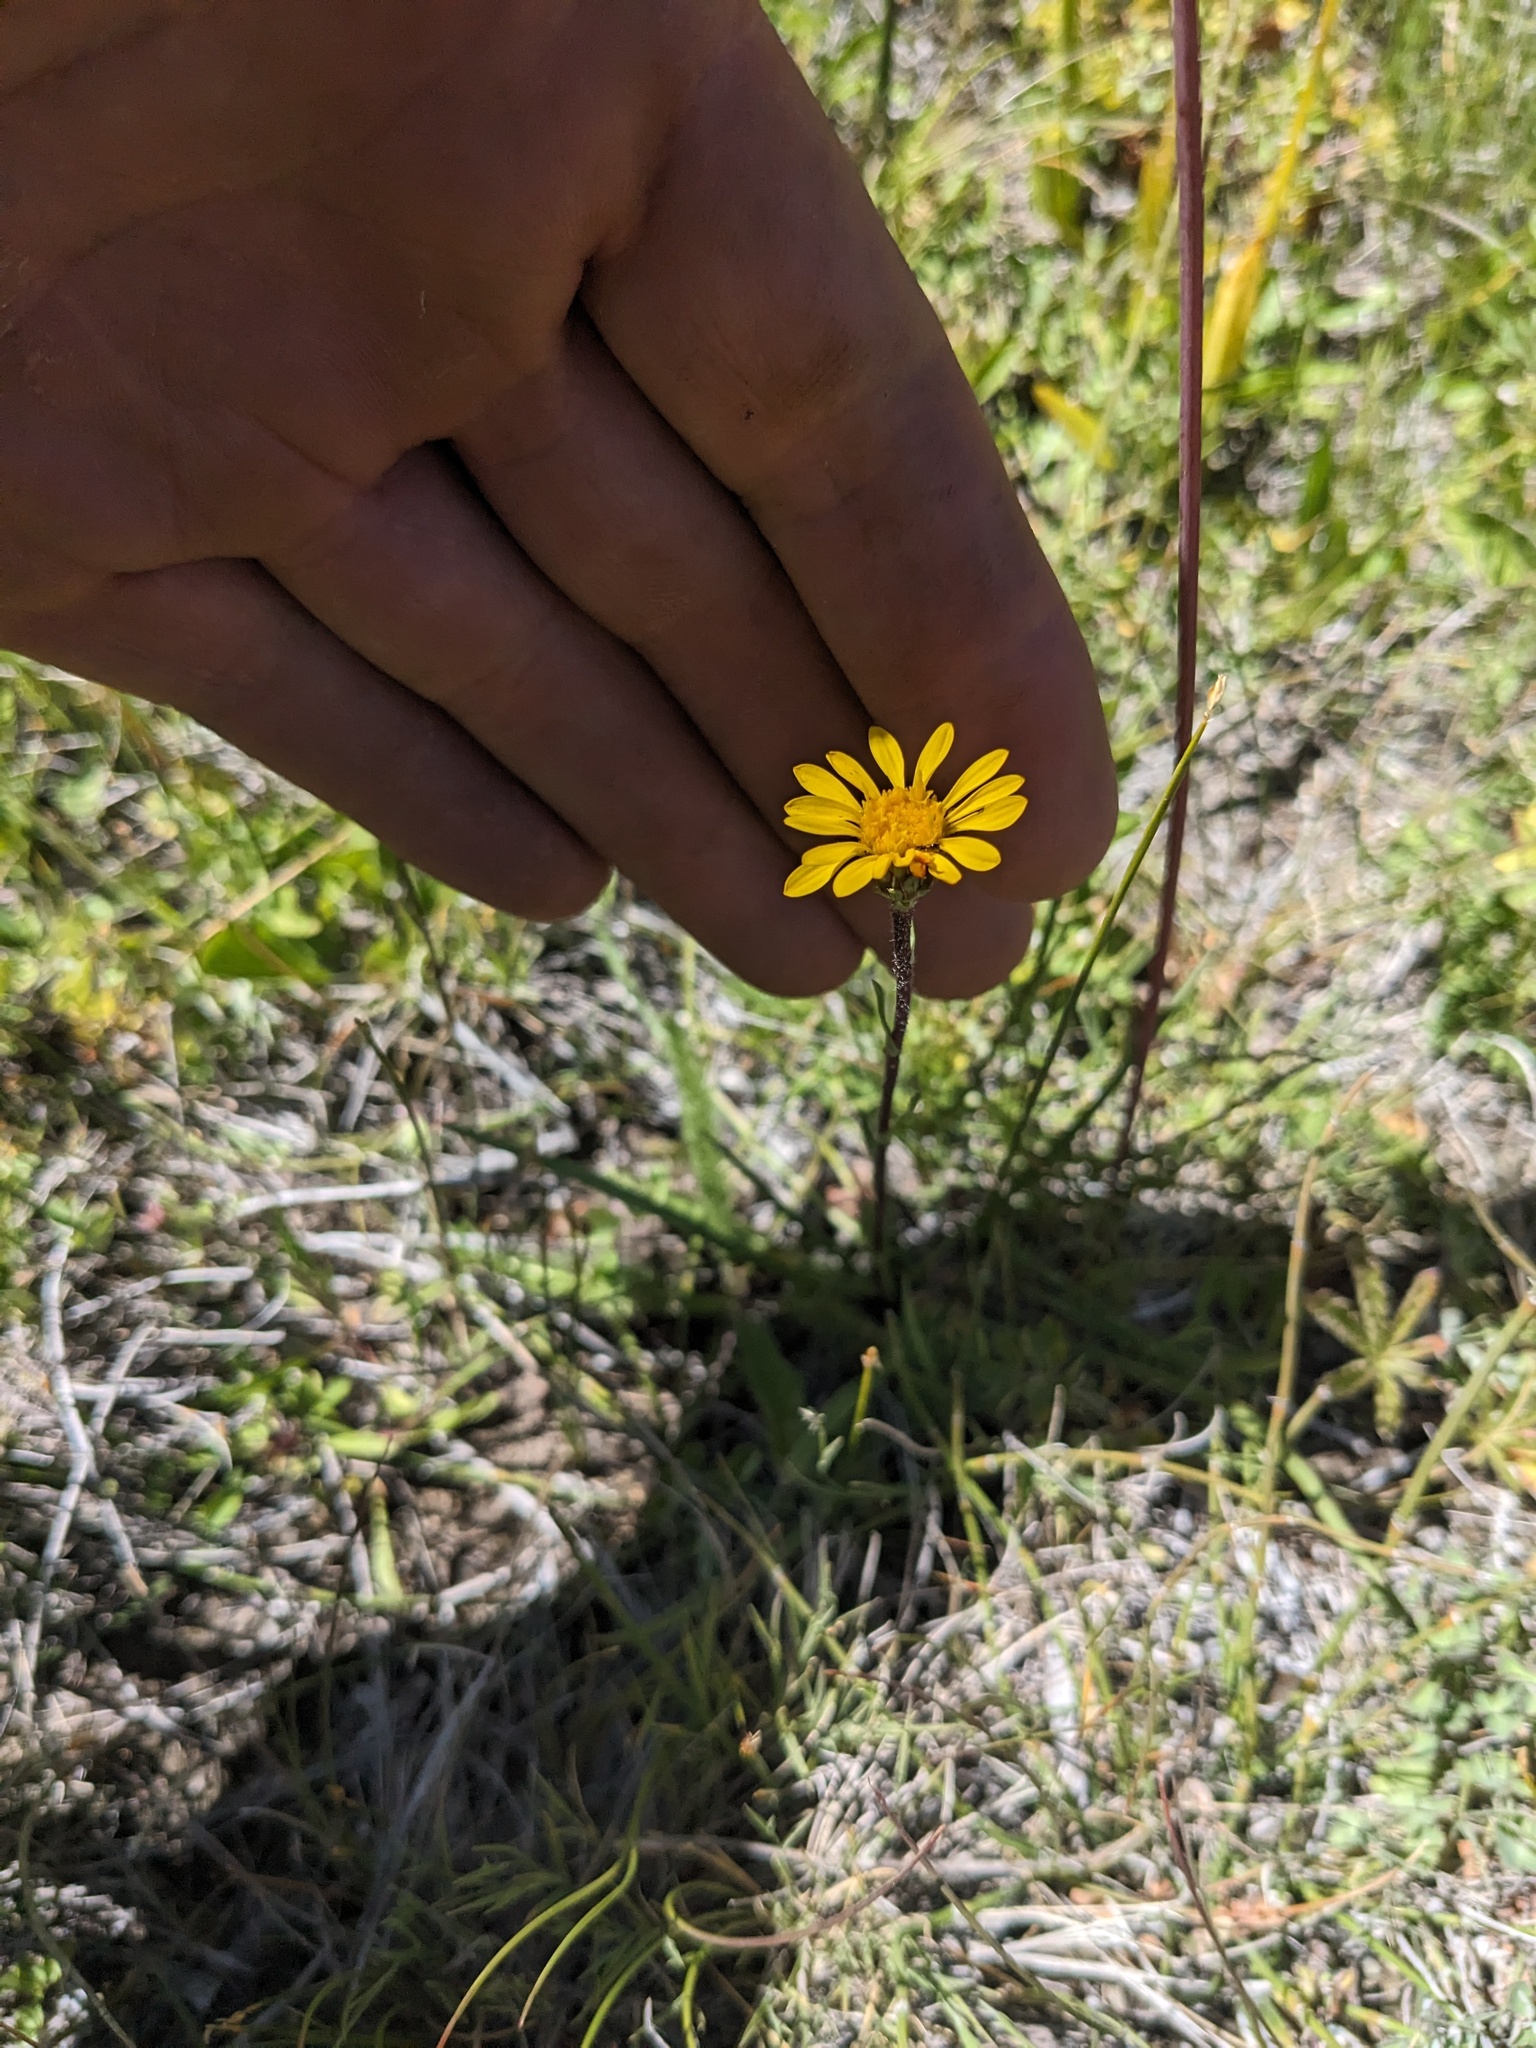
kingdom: Plantae
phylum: Tracheophyta
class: Magnoliopsida
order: Asterales
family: Asteraceae
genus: Pyrrocoma
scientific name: Pyrrocoma apargioides
